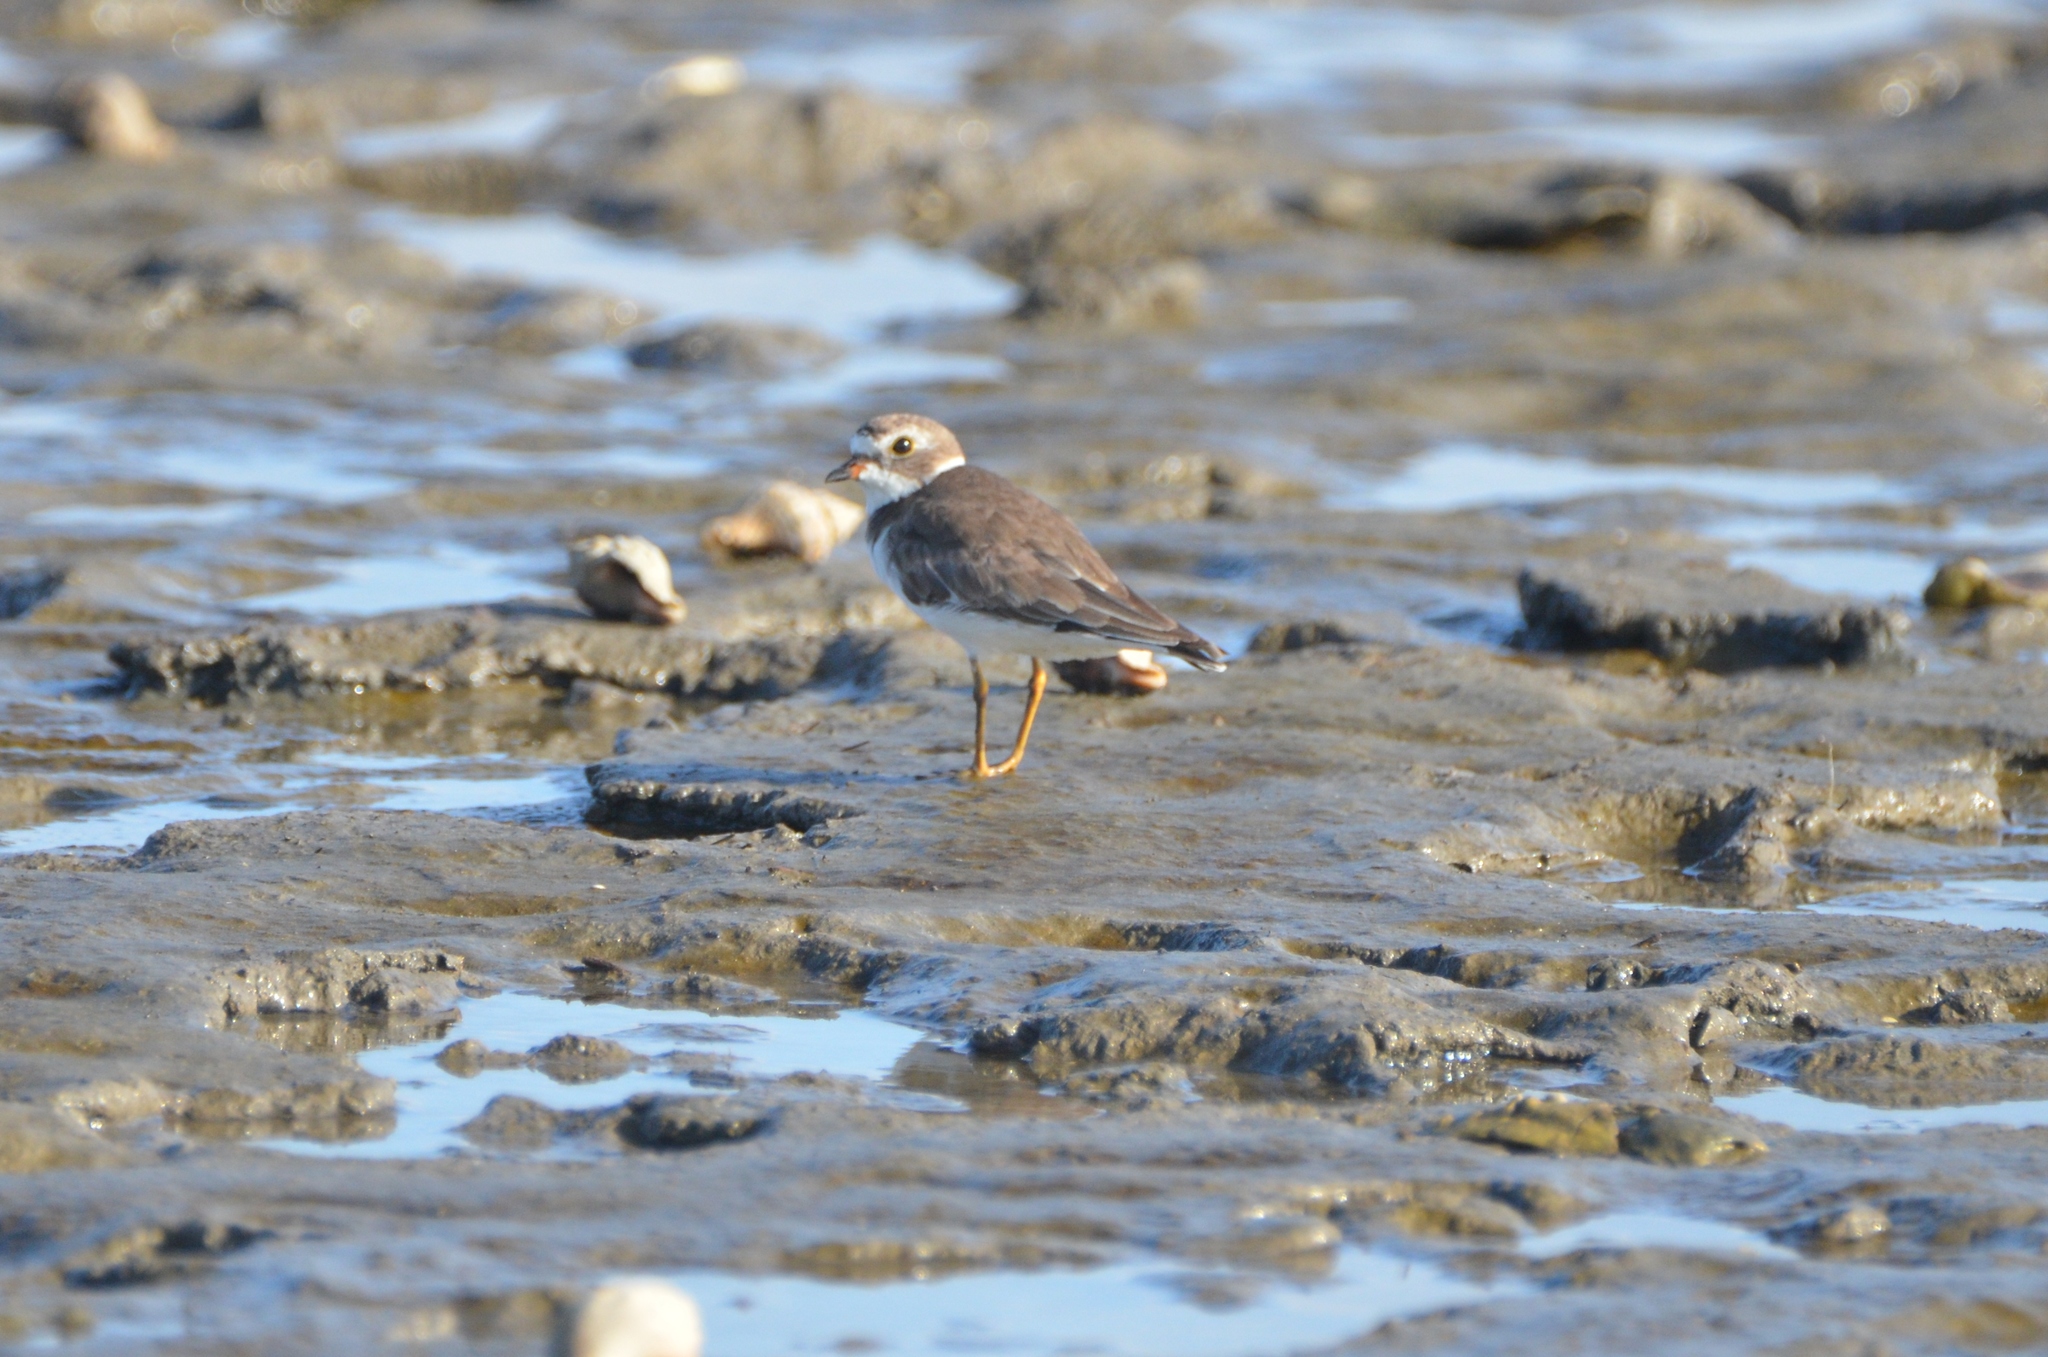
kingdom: Animalia
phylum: Chordata
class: Aves
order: Charadriiformes
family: Charadriidae
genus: Charadrius
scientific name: Charadrius semipalmatus
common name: Semipalmated plover
